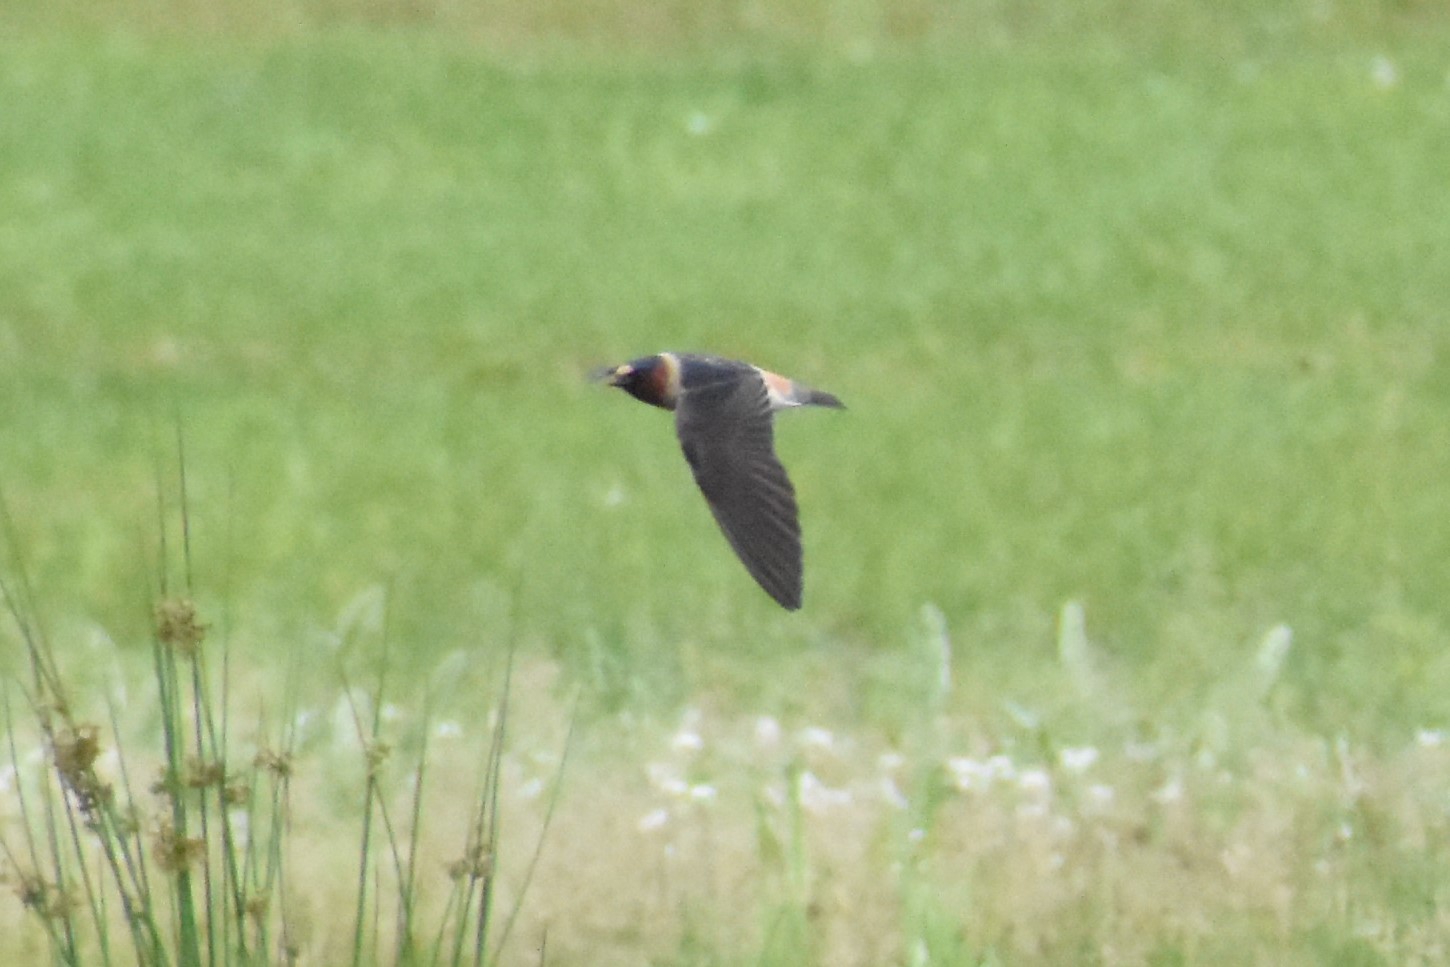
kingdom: Animalia
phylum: Chordata
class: Aves
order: Passeriformes
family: Hirundinidae
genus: Petrochelidon
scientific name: Petrochelidon pyrrhonota
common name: American cliff swallow
